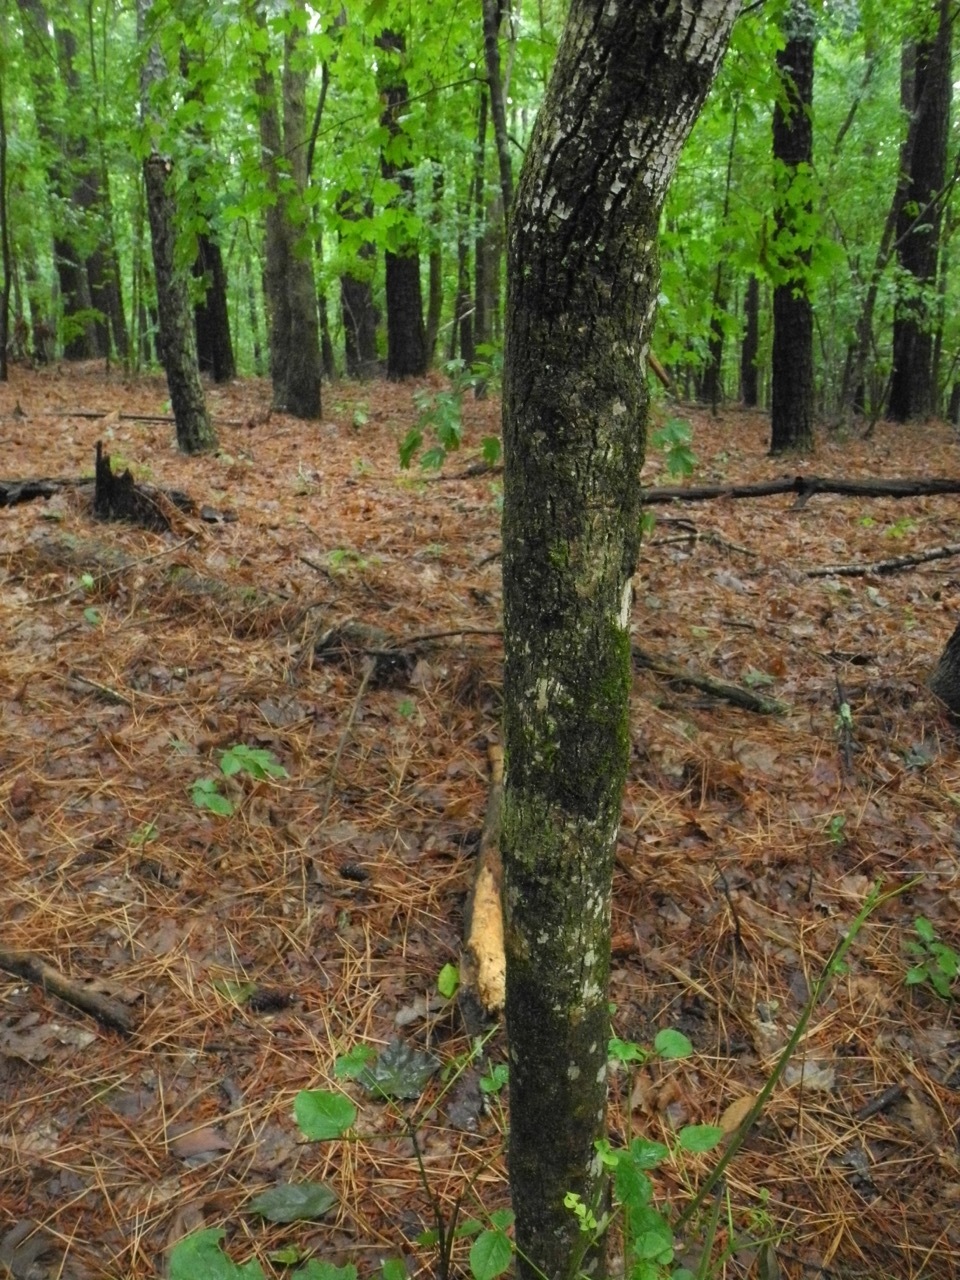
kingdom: Plantae
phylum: Tracheophyta
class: Magnoliopsida
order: Lamiales
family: Oleaceae
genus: Fraxinus
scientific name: Fraxinus americana
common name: White ash
